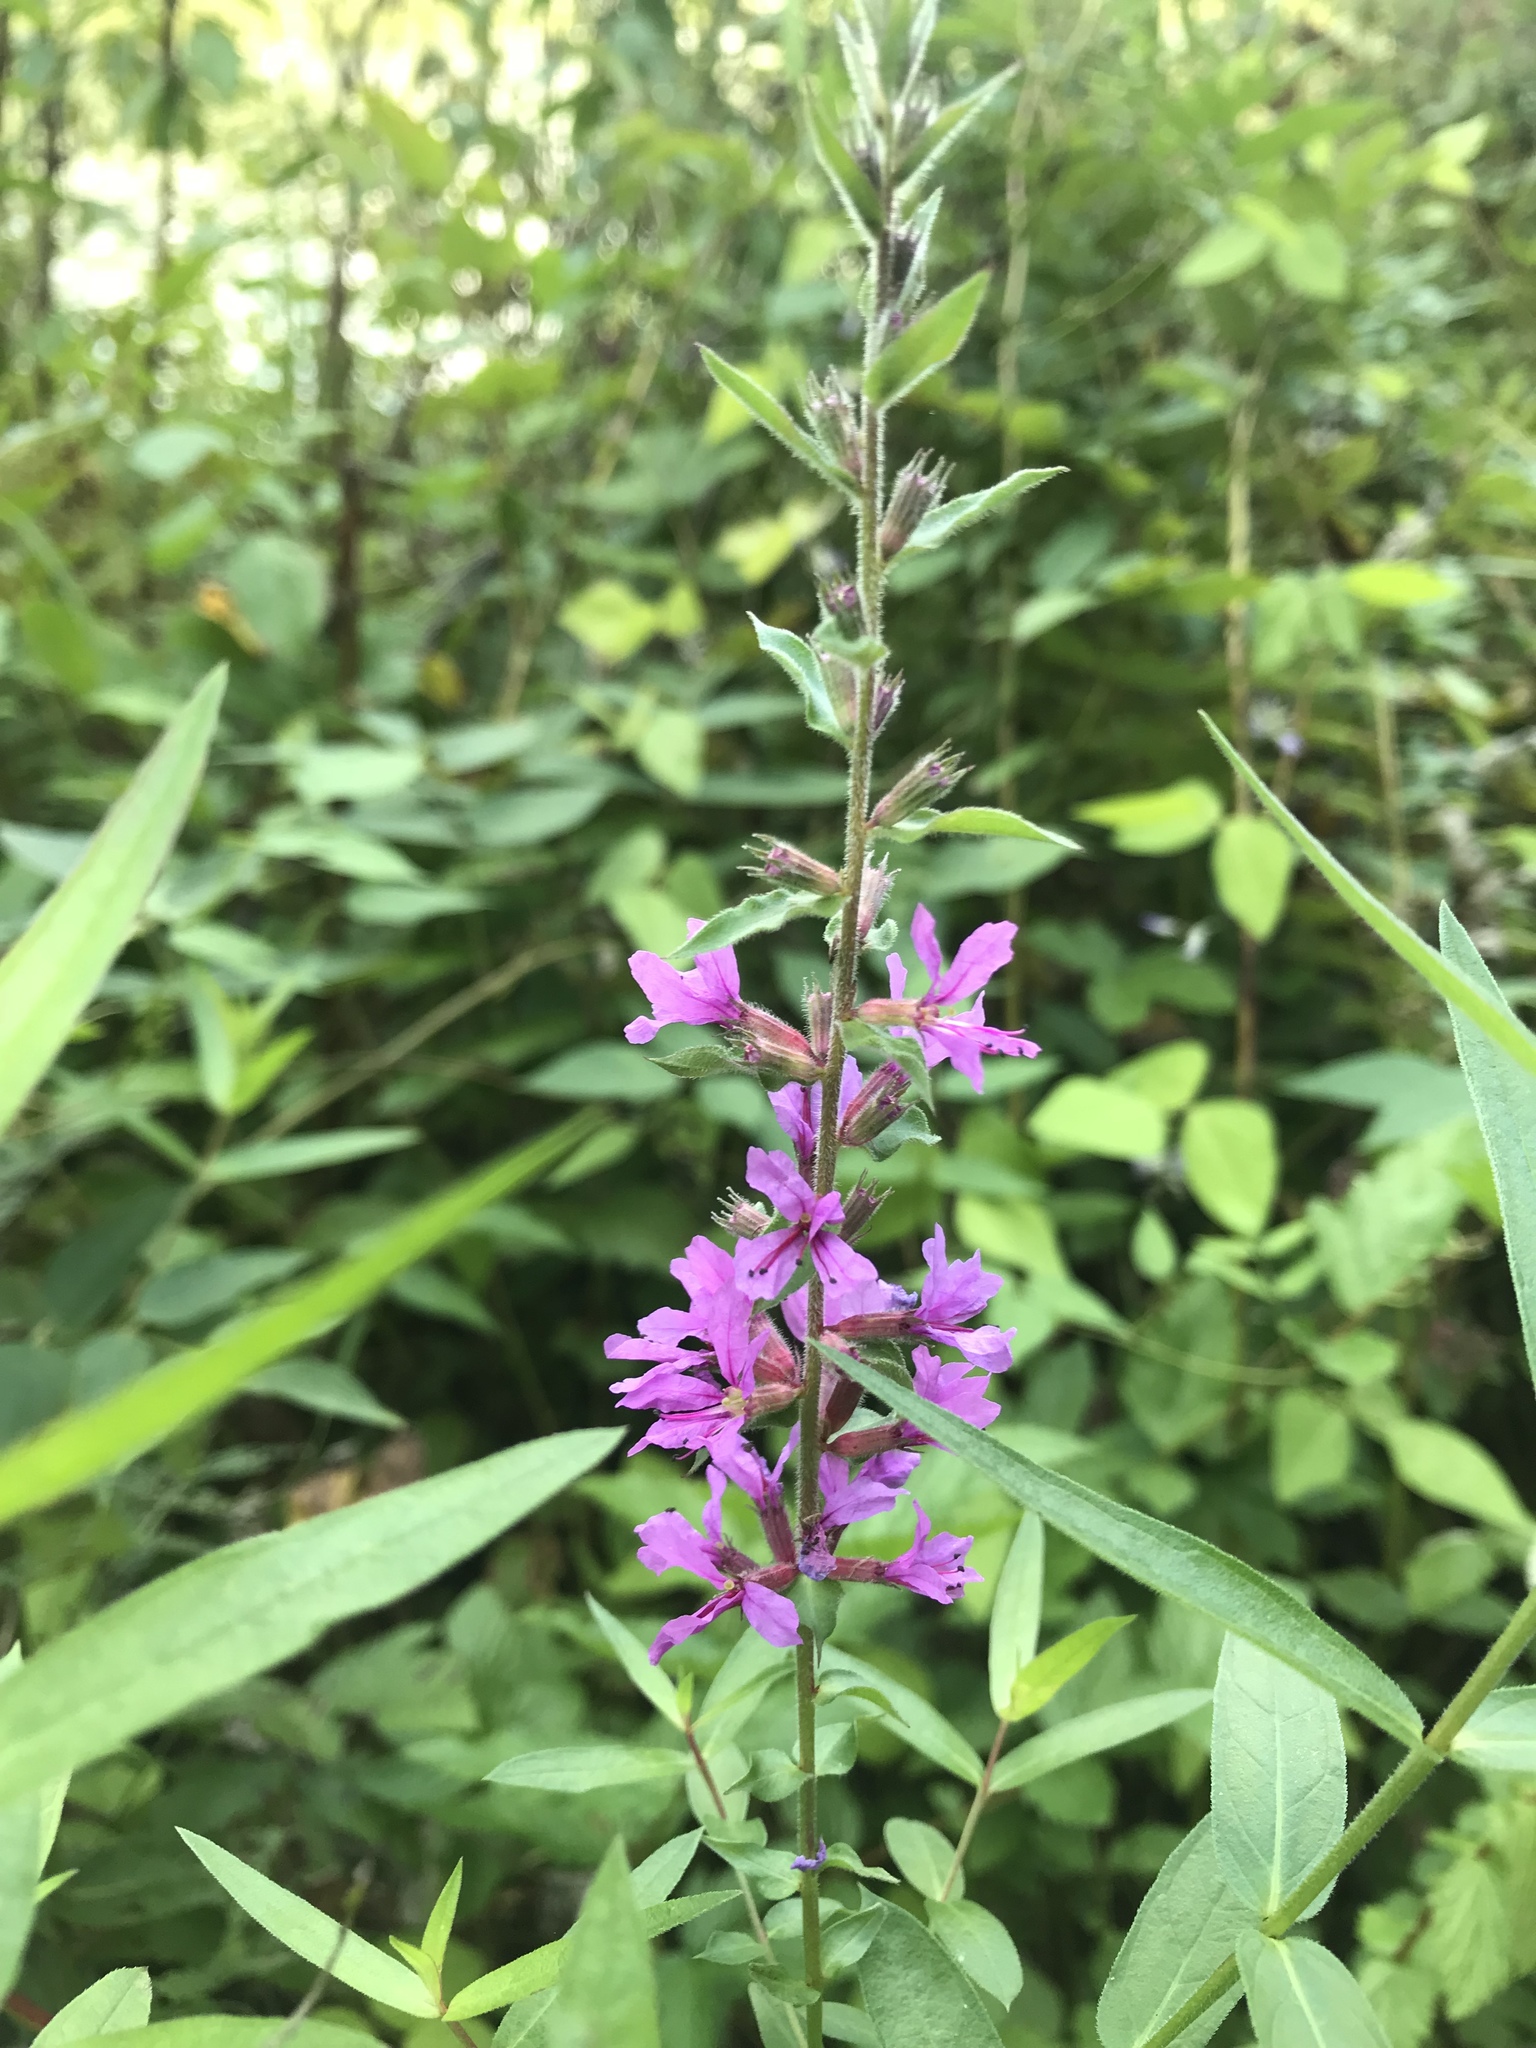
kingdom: Plantae
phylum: Tracheophyta
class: Magnoliopsida
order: Myrtales
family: Lythraceae
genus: Lythrum
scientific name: Lythrum salicaria
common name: Purple loosestrife
